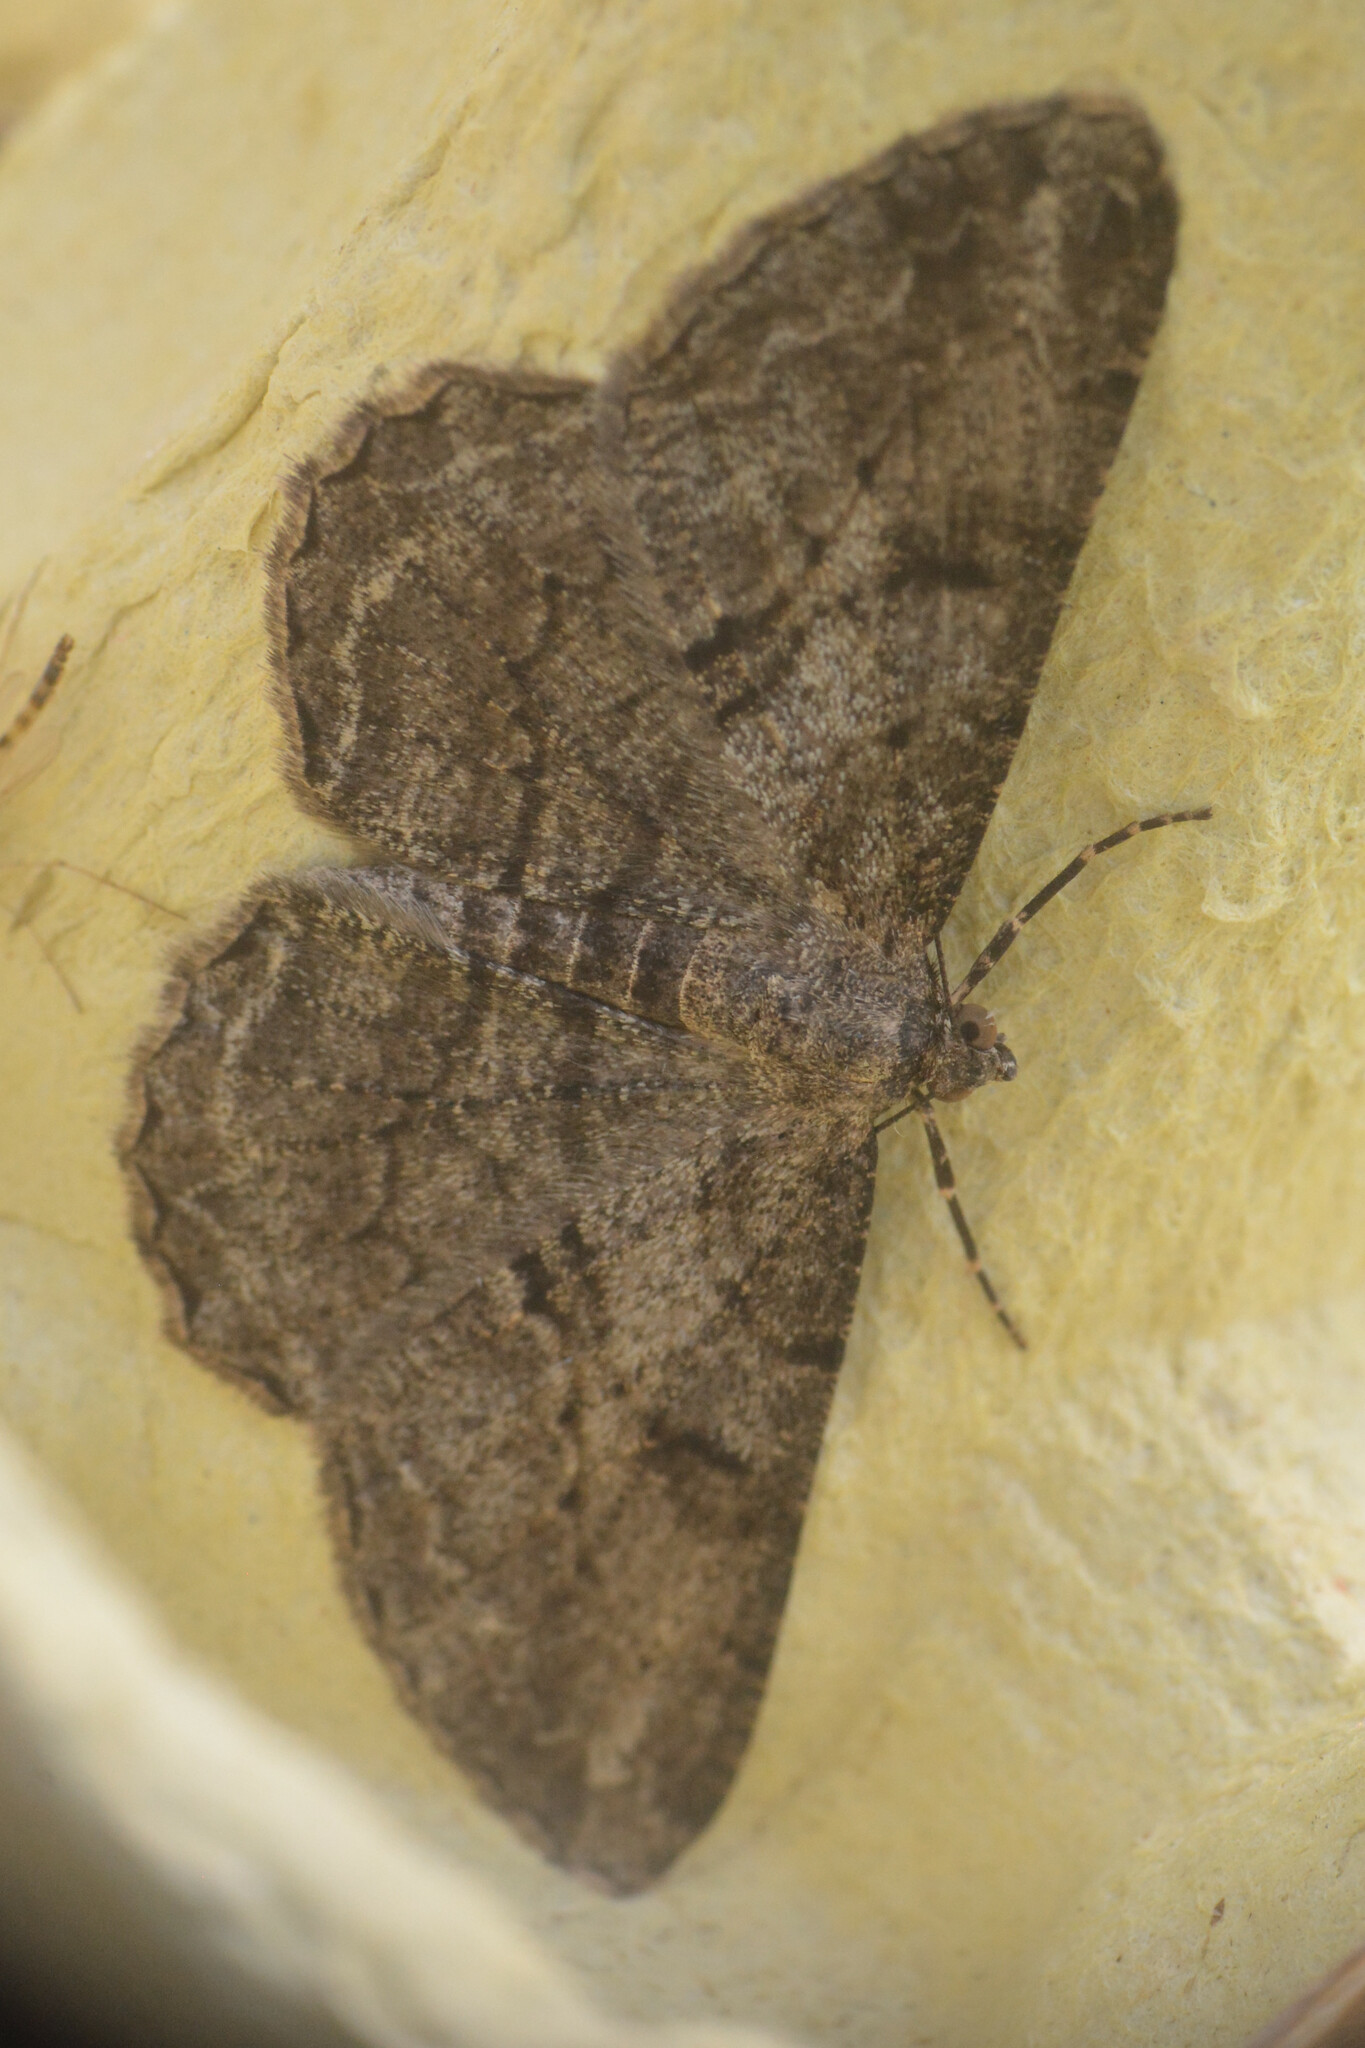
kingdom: Animalia
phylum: Arthropoda
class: Insecta
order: Lepidoptera
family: Geometridae
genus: Peribatodes
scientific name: Peribatodes rhomboidaria
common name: Willow beauty
